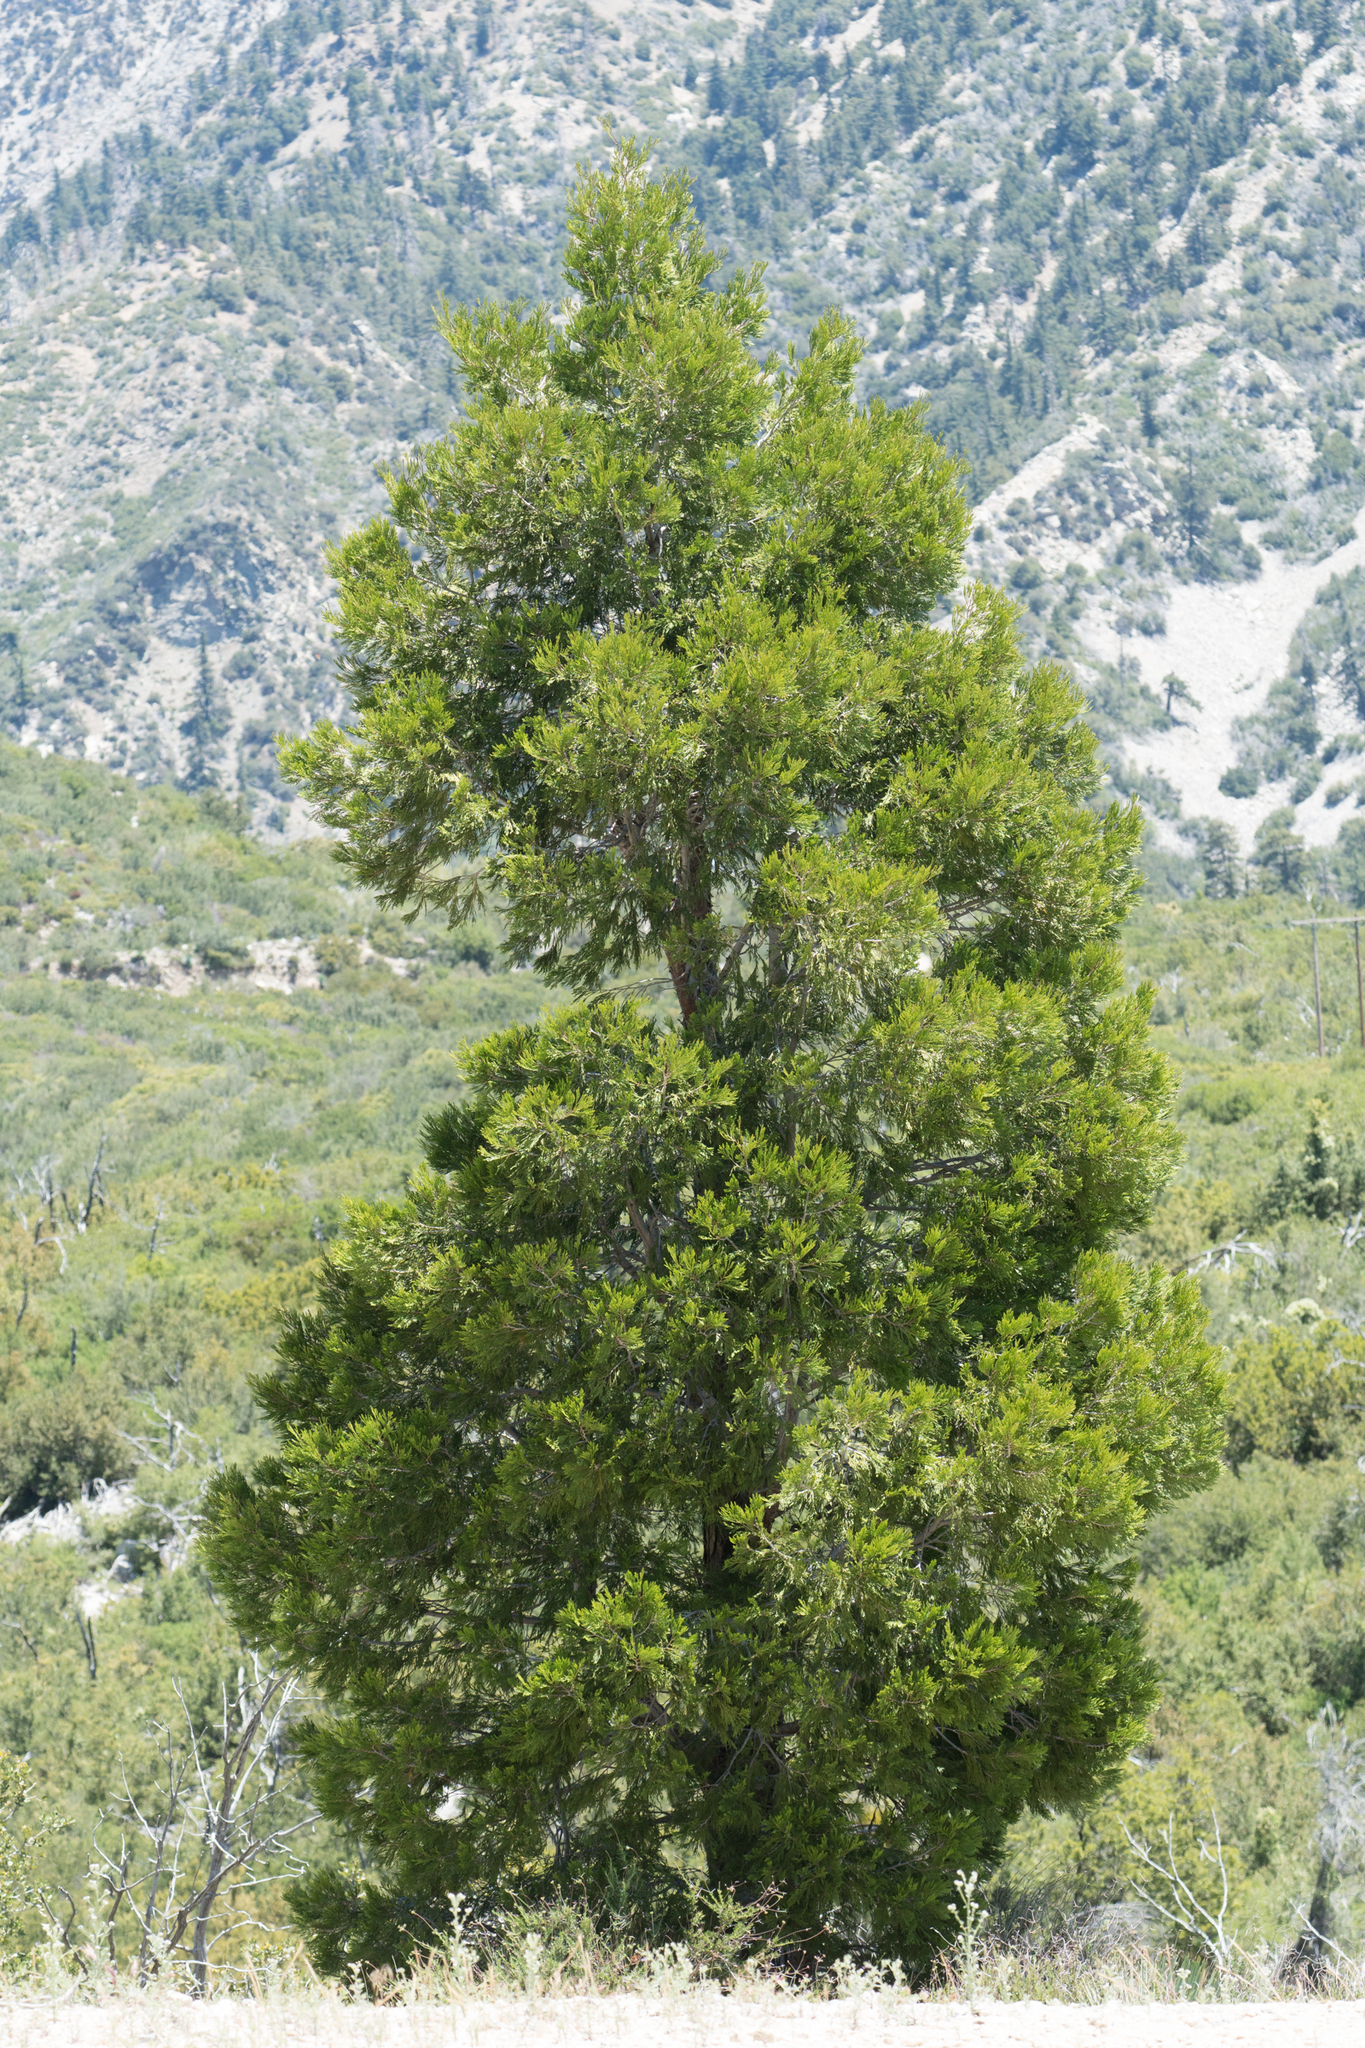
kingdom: Plantae
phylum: Tracheophyta
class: Pinopsida
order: Pinales
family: Cupressaceae
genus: Calocedrus
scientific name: Calocedrus decurrens
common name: Californian incense-cedar
